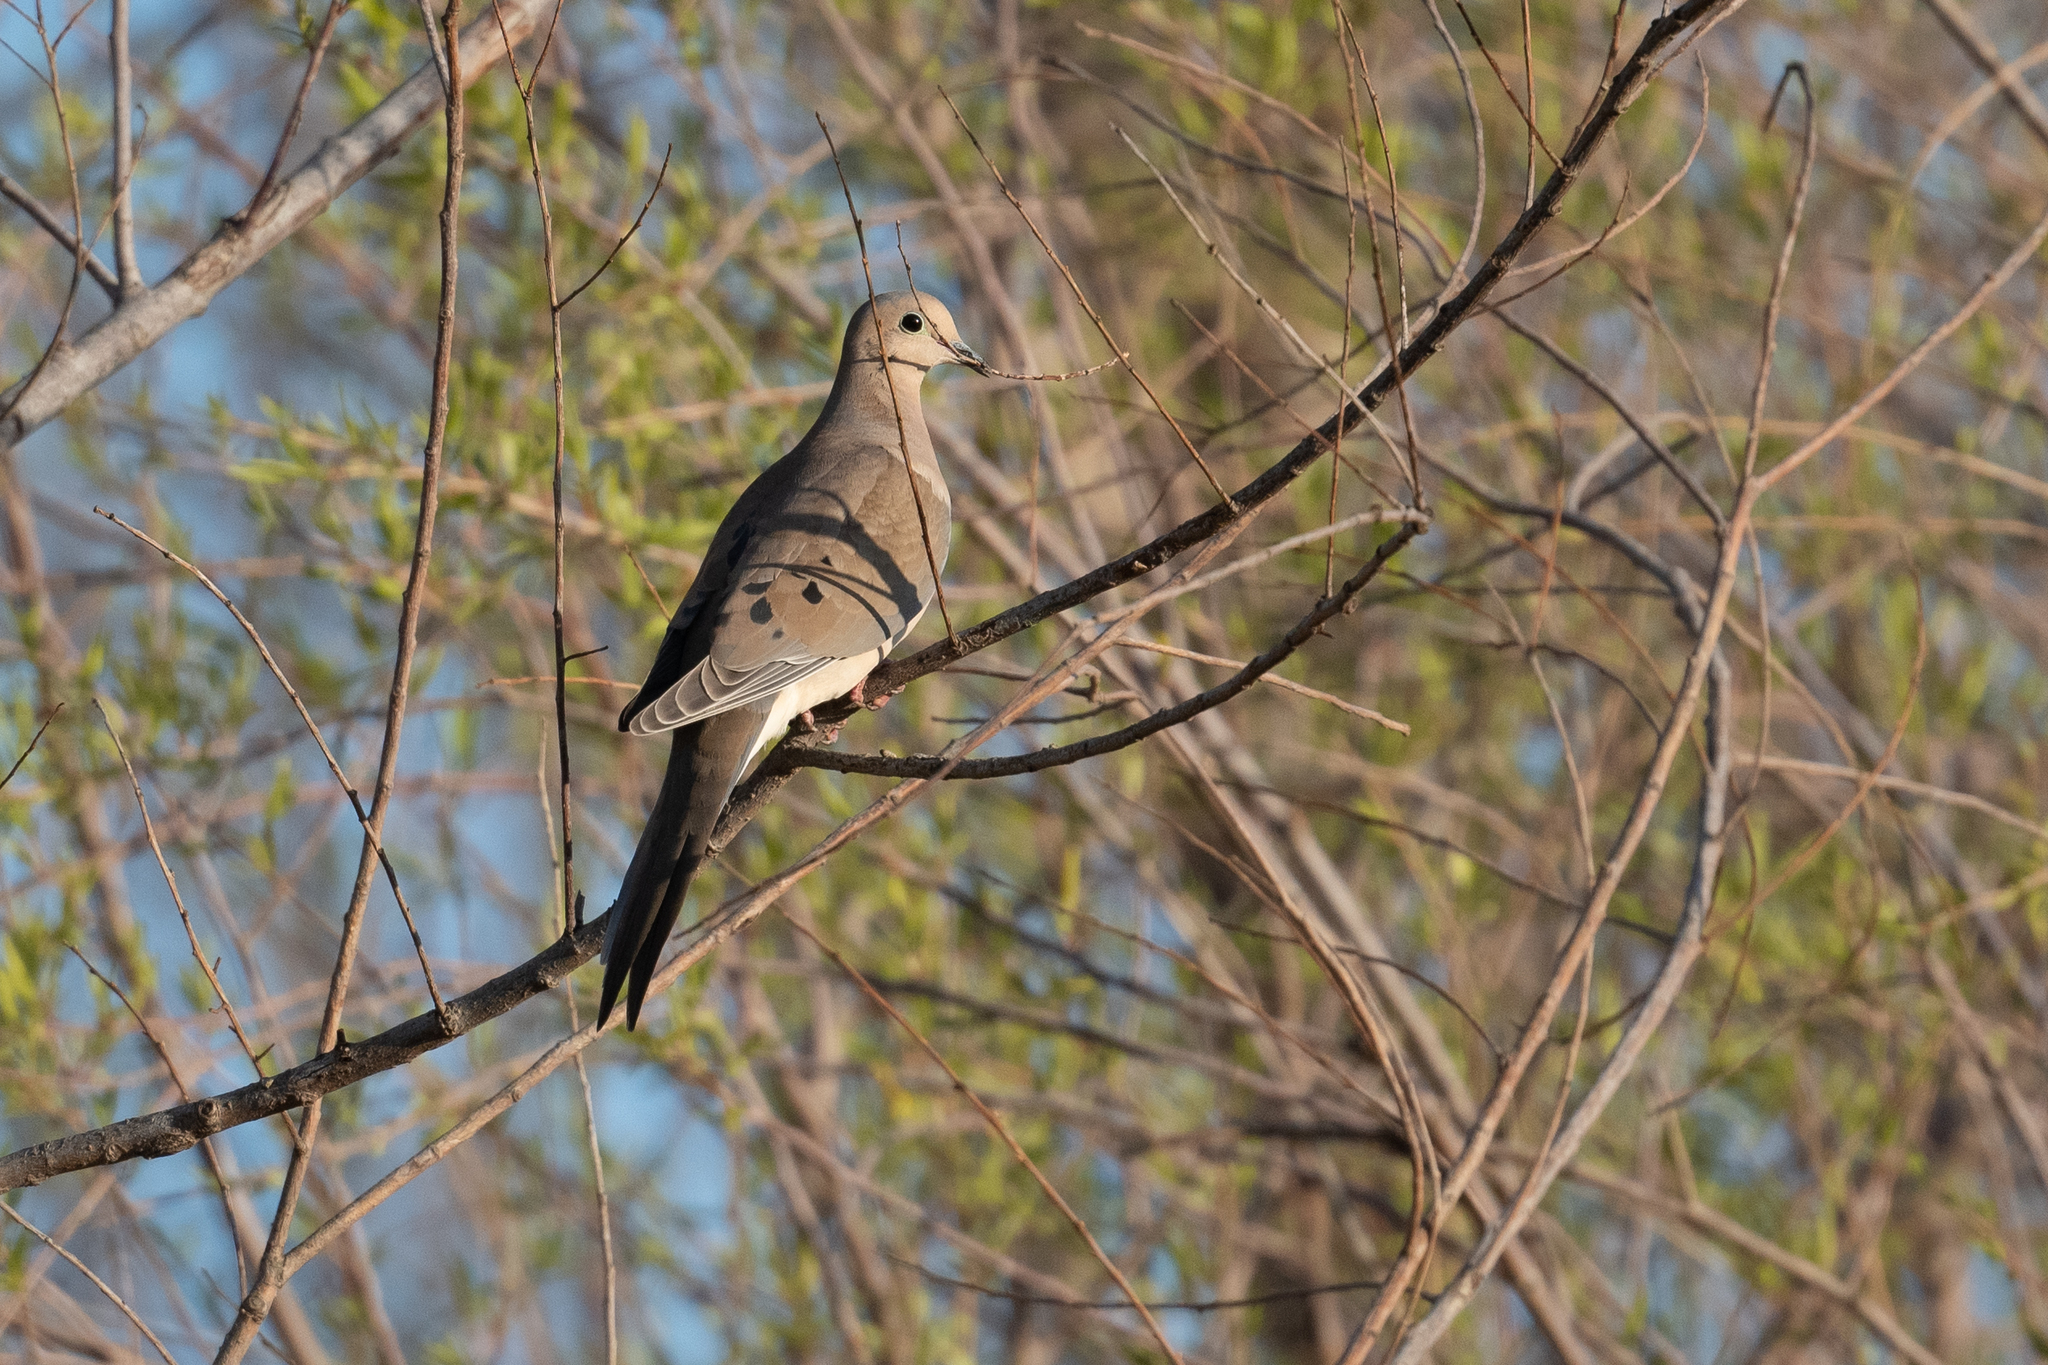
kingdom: Animalia
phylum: Chordata
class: Aves
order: Columbiformes
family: Columbidae
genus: Zenaida
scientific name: Zenaida macroura
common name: Mourning dove
